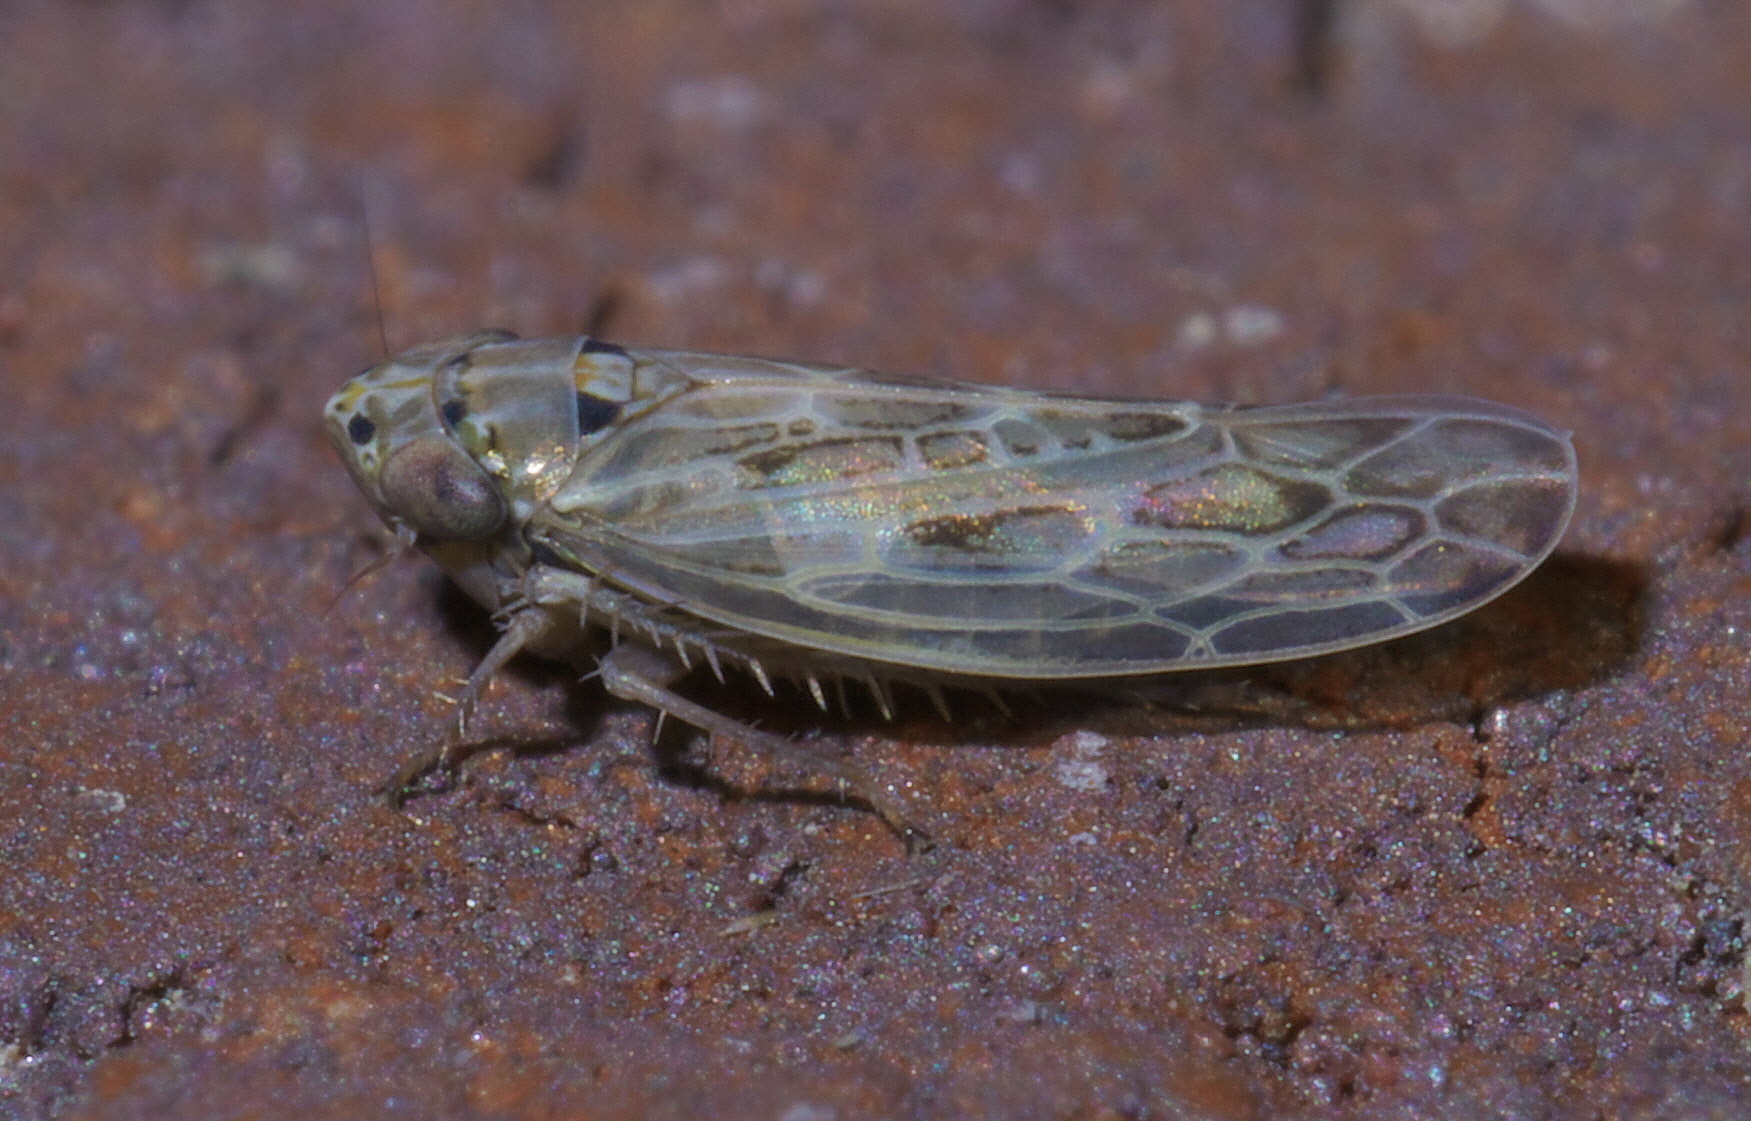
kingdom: Animalia
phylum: Arthropoda
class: Insecta
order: Hemiptera
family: Cicadellidae
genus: Endria
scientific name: Endria inimicus
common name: Painted leafhopper
